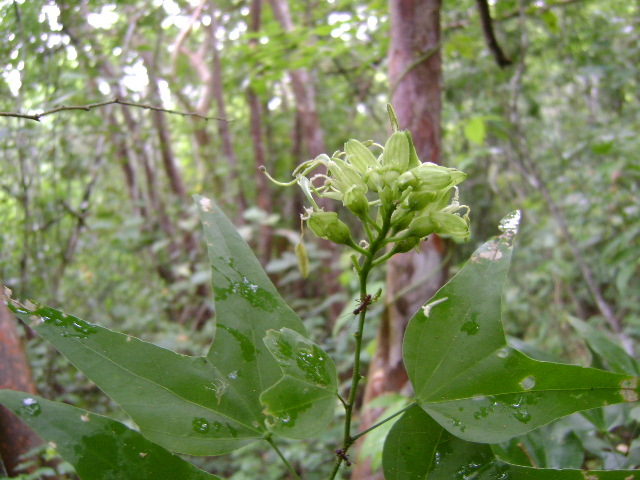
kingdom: Plantae
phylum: Tracheophyta
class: Magnoliopsida
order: Fabales
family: Fabaceae
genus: Bauhinia
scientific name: Bauhinia jucunda
